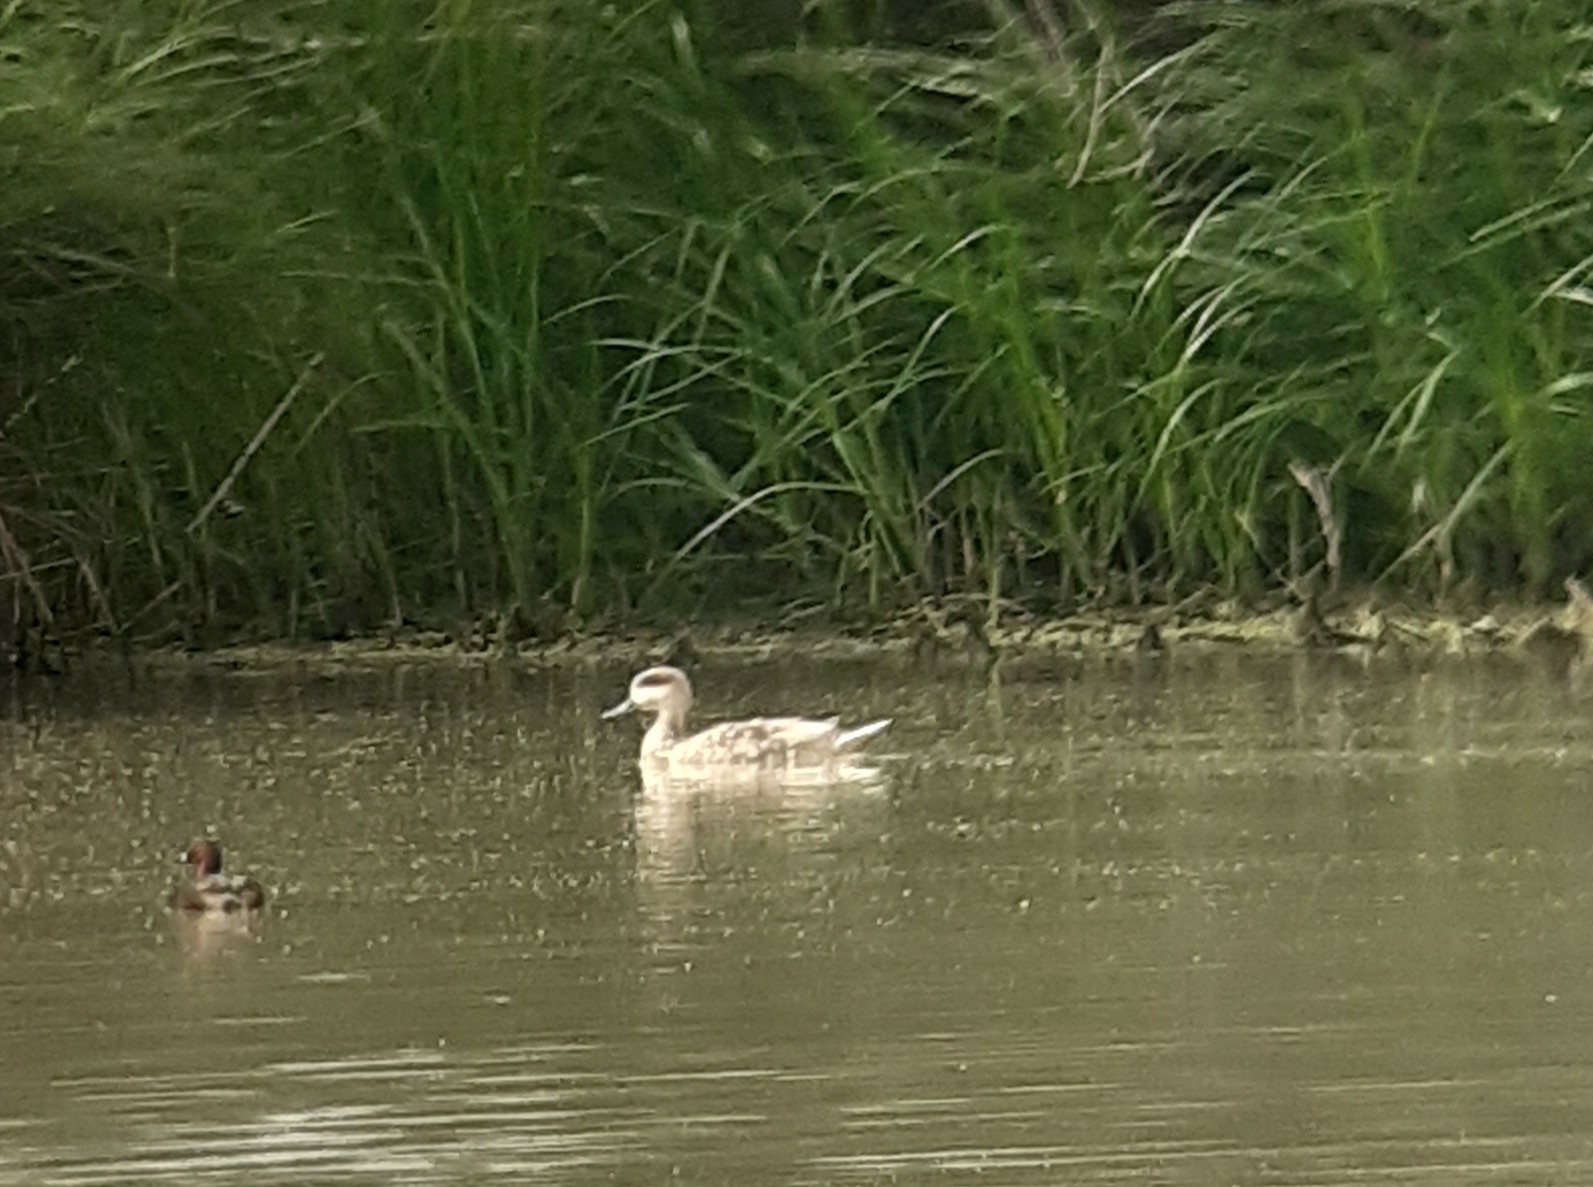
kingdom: Animalia
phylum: Chordata
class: Aves
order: Anseriformes
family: Anatidae
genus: Marmaronetta
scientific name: Marmaronetta angustirostris
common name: Marbled duck
